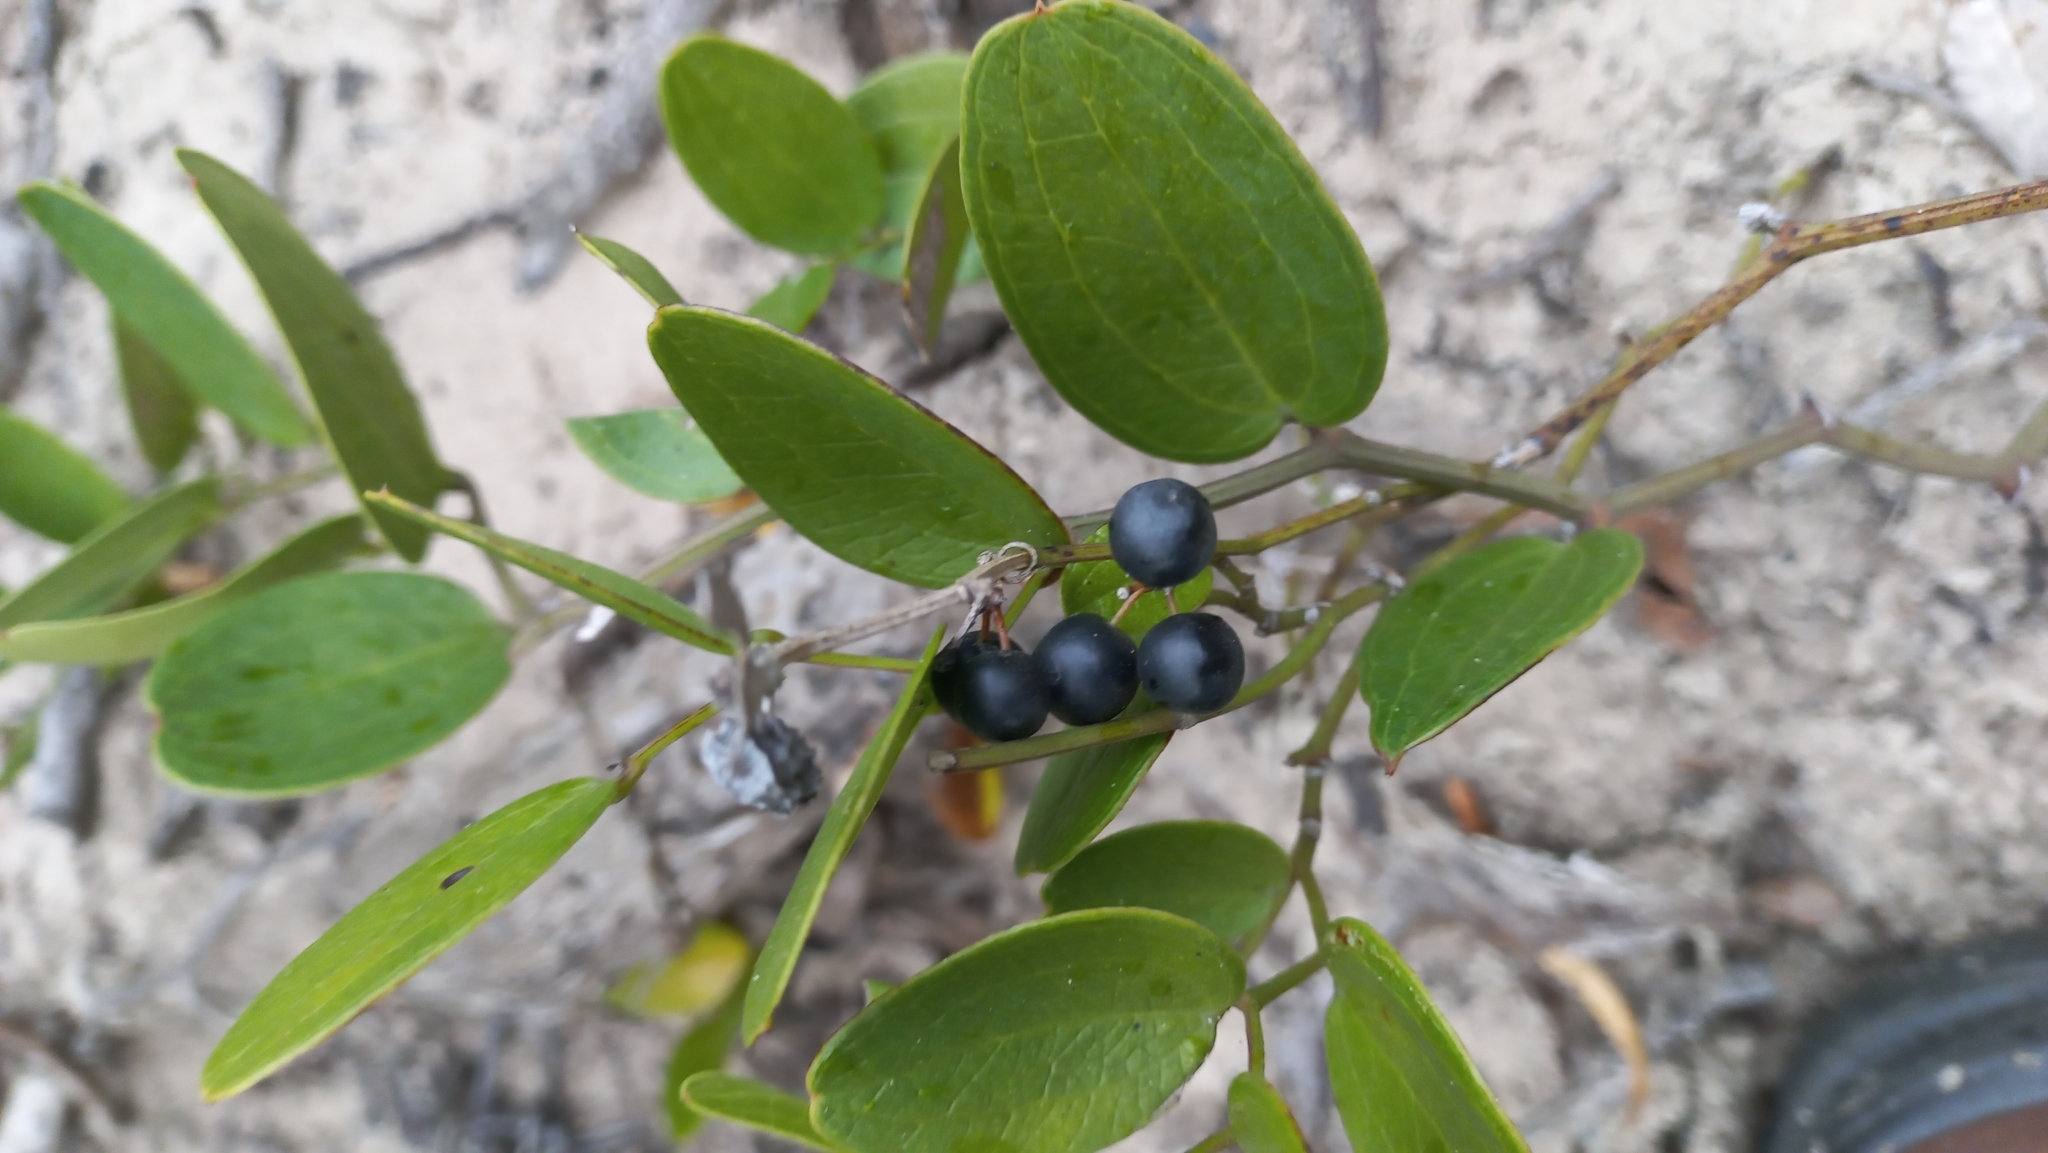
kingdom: Plantae
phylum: Tracheophyta
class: Liliopsida
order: Liliales
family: Smilacaceae
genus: Smilax
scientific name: Smilax rufescens
